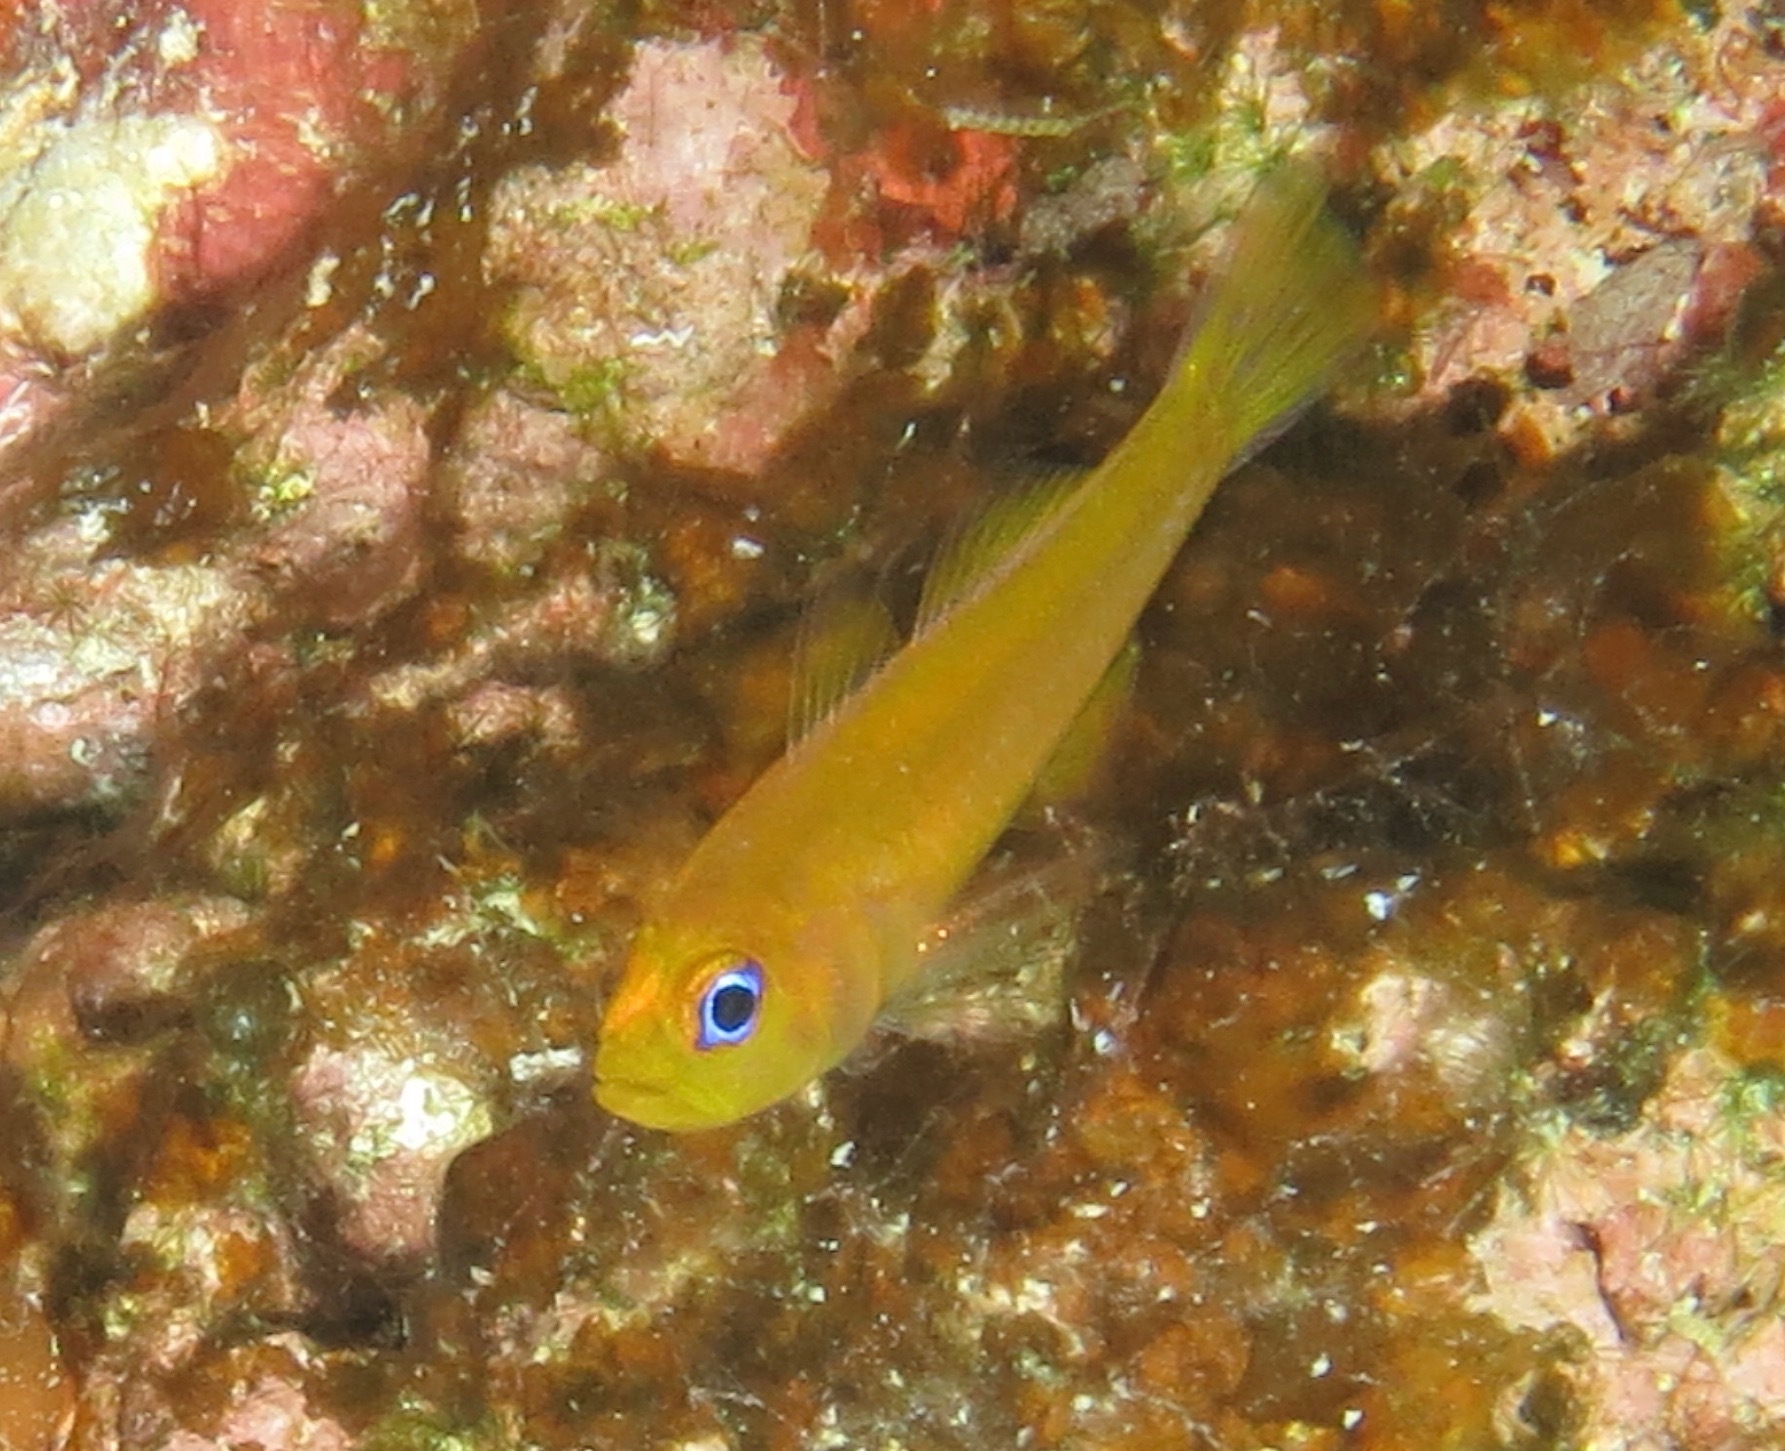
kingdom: Animalia
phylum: Chordata
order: Perciformes
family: Gobiidae
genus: Trimma
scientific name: Trimma anthrenum
